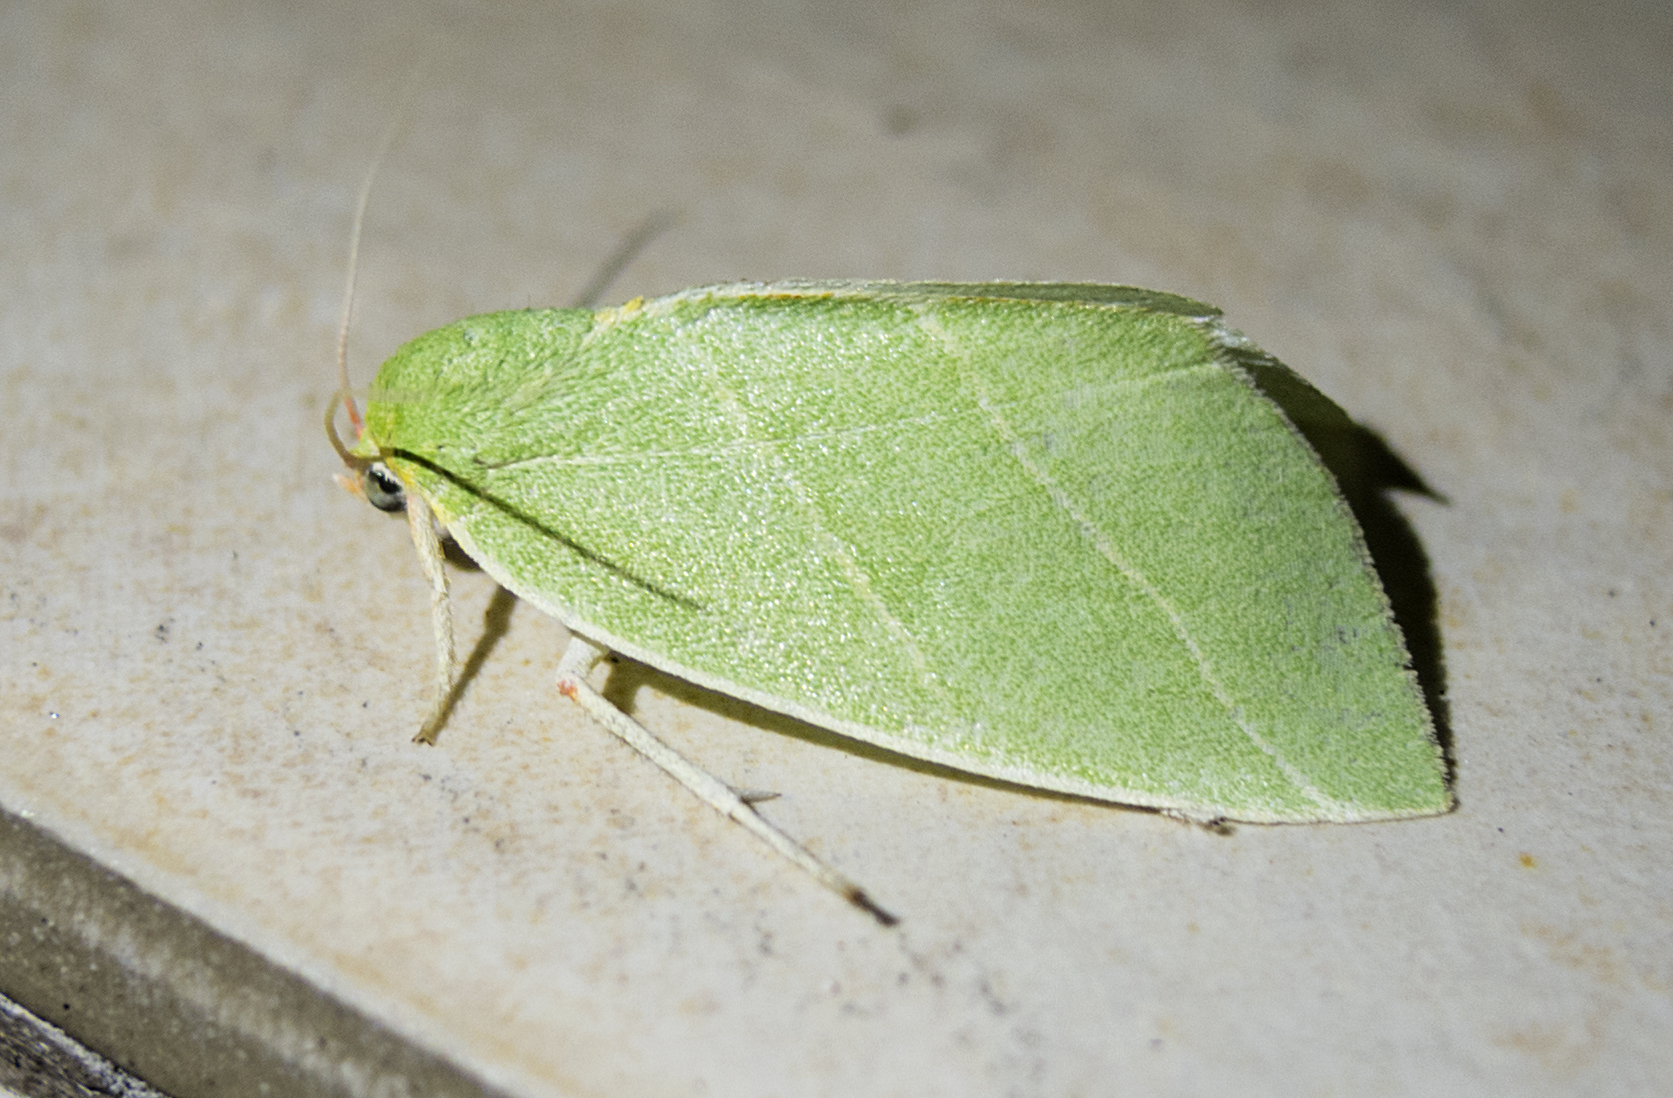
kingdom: Animalia
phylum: Arthropoda
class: Insecta
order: Lepidoptera
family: Nolidae
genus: Bena
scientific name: Bena bicolorana
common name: Scarce silver-lines
